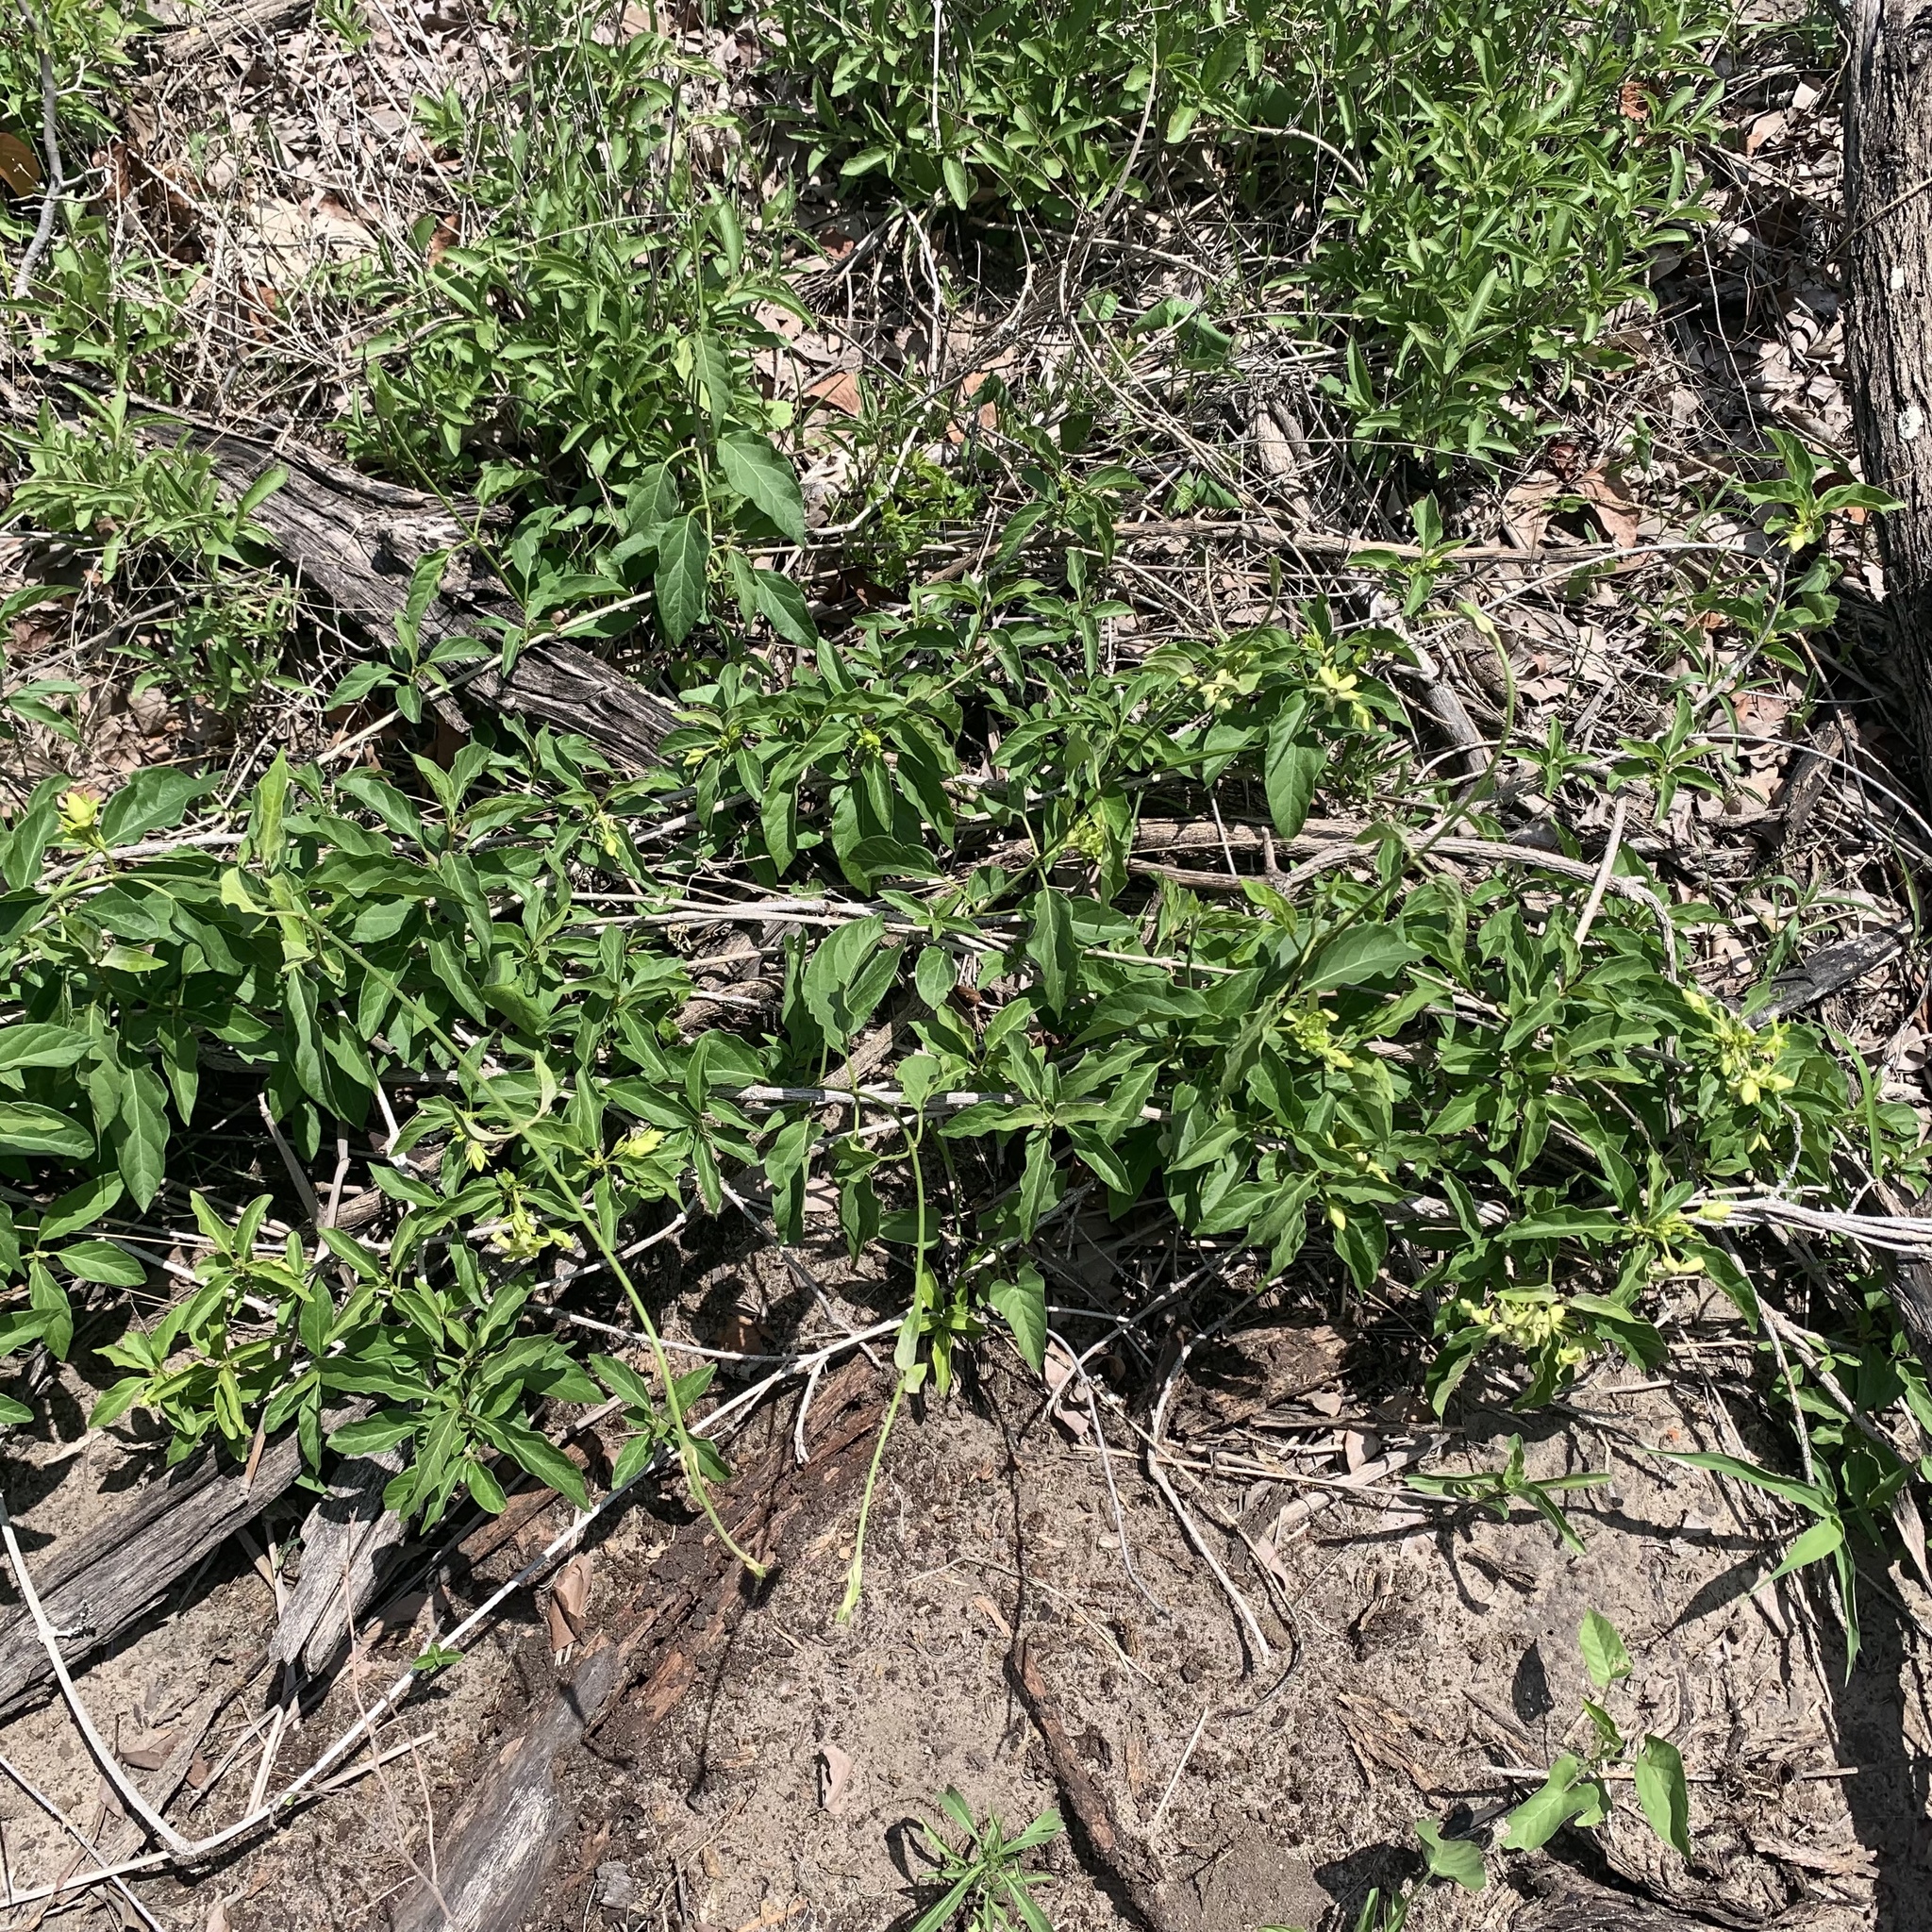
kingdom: Plantae
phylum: Tracheophyta
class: Magnoliopsida
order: Gentianales
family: Apocynaceae
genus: Stephanotis
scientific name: Stephanotis macrantha
